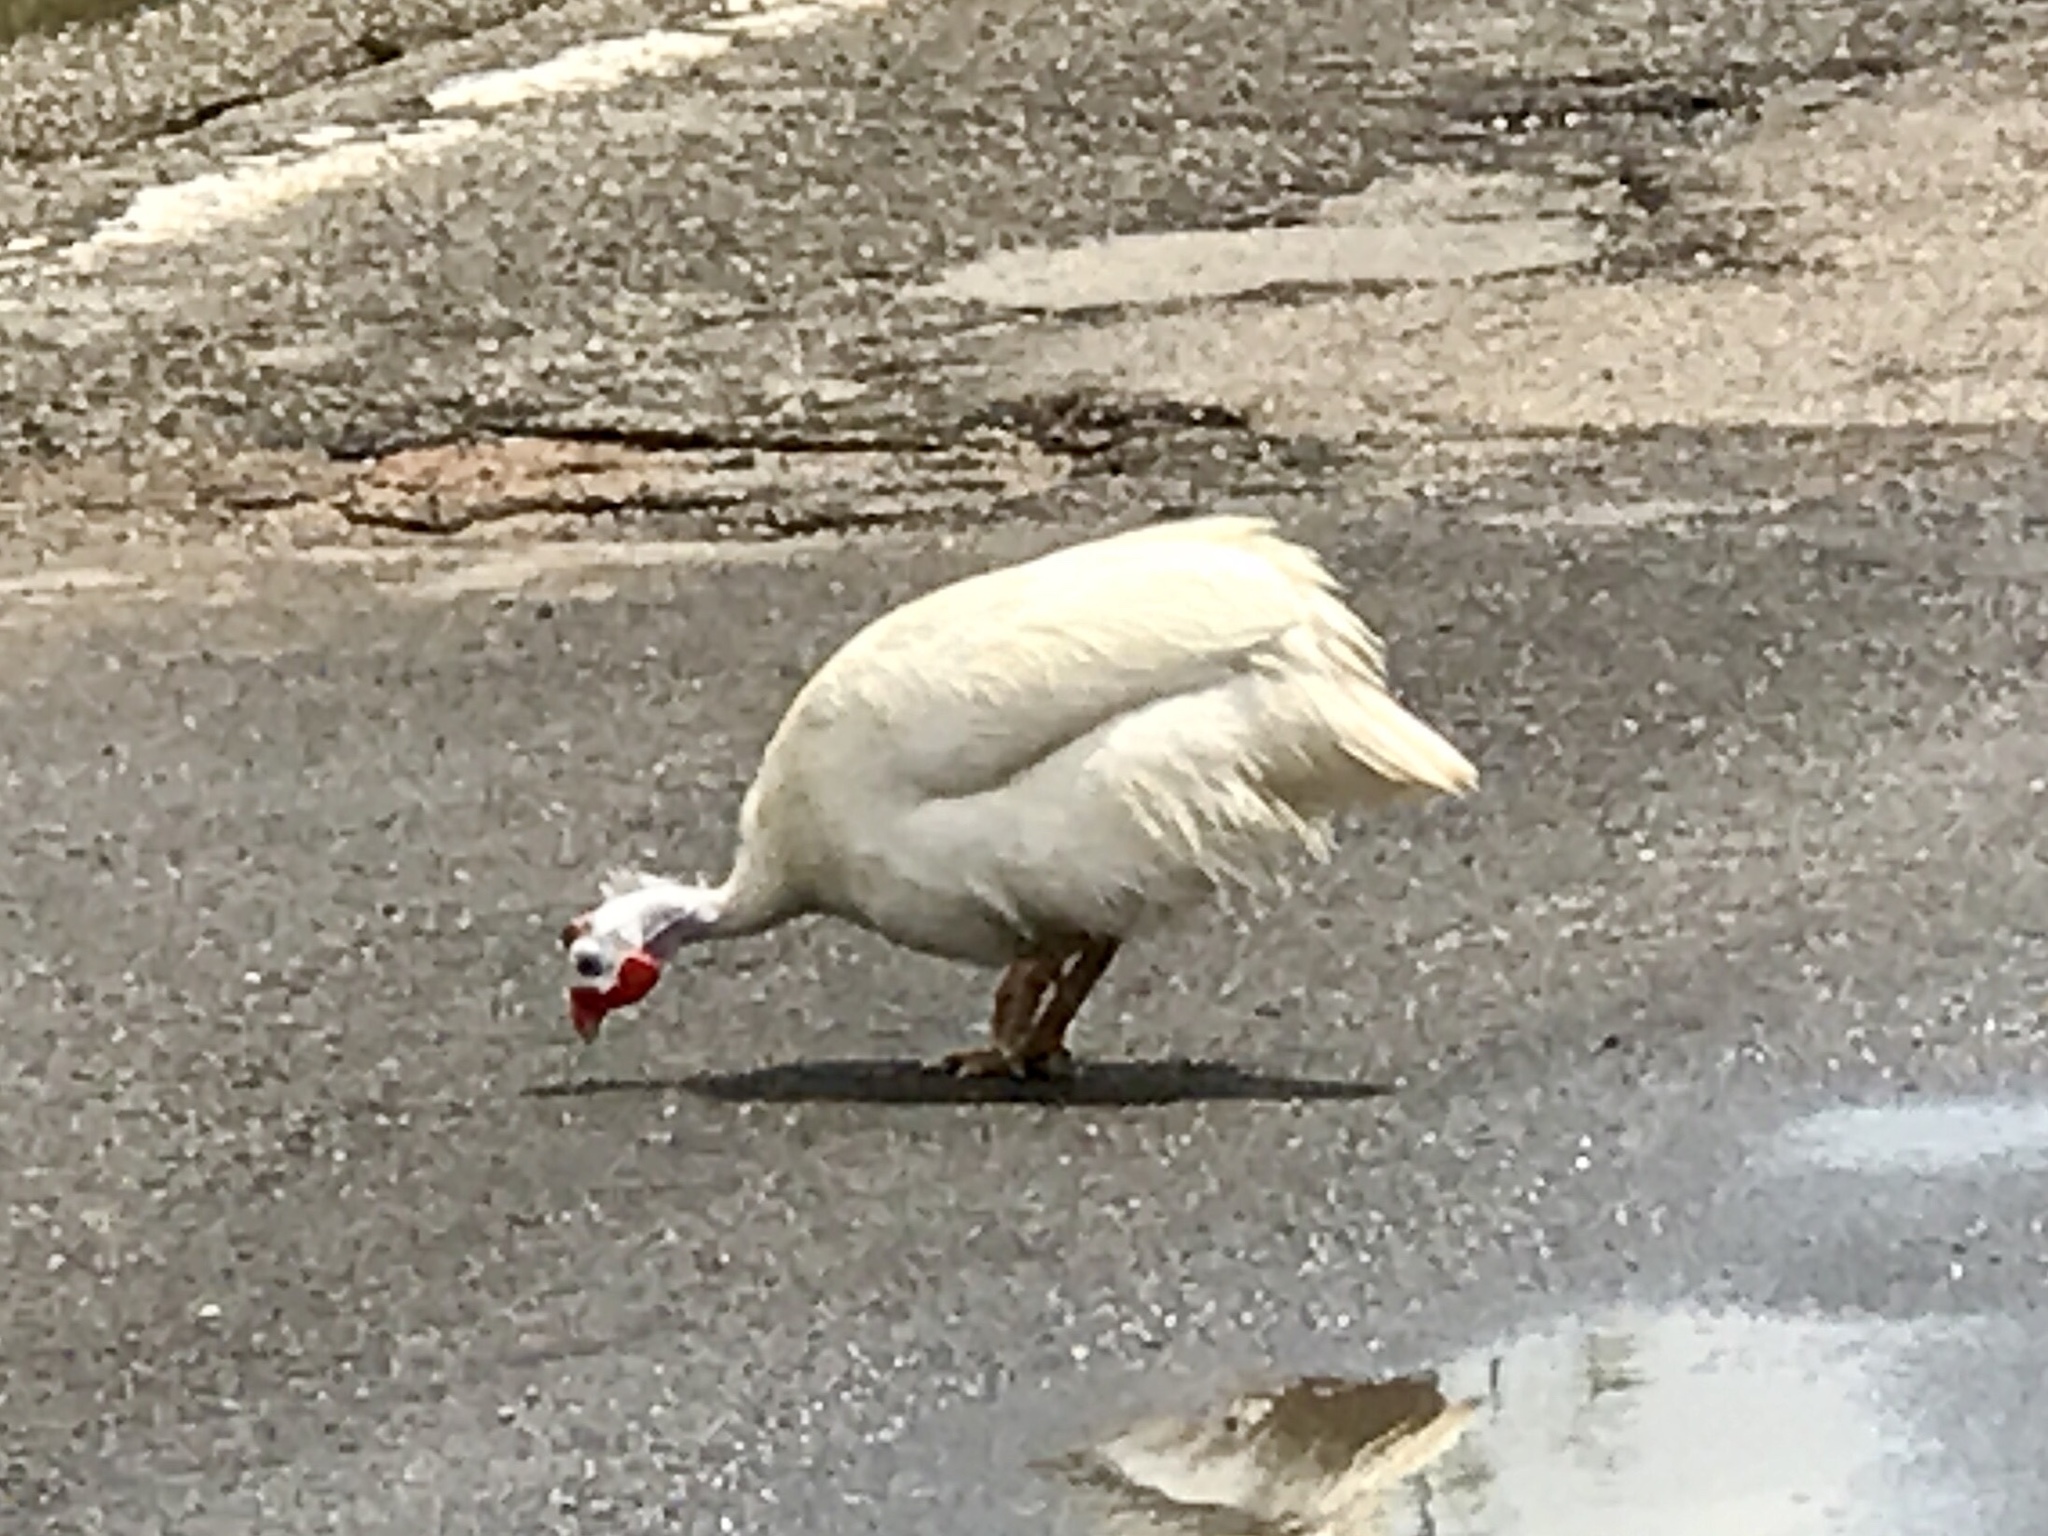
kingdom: Animalia
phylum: Chordata
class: Aves
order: Galliformes
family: Numididae
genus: Numida
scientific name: Numida meleagris
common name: Helmeted guineafowl
